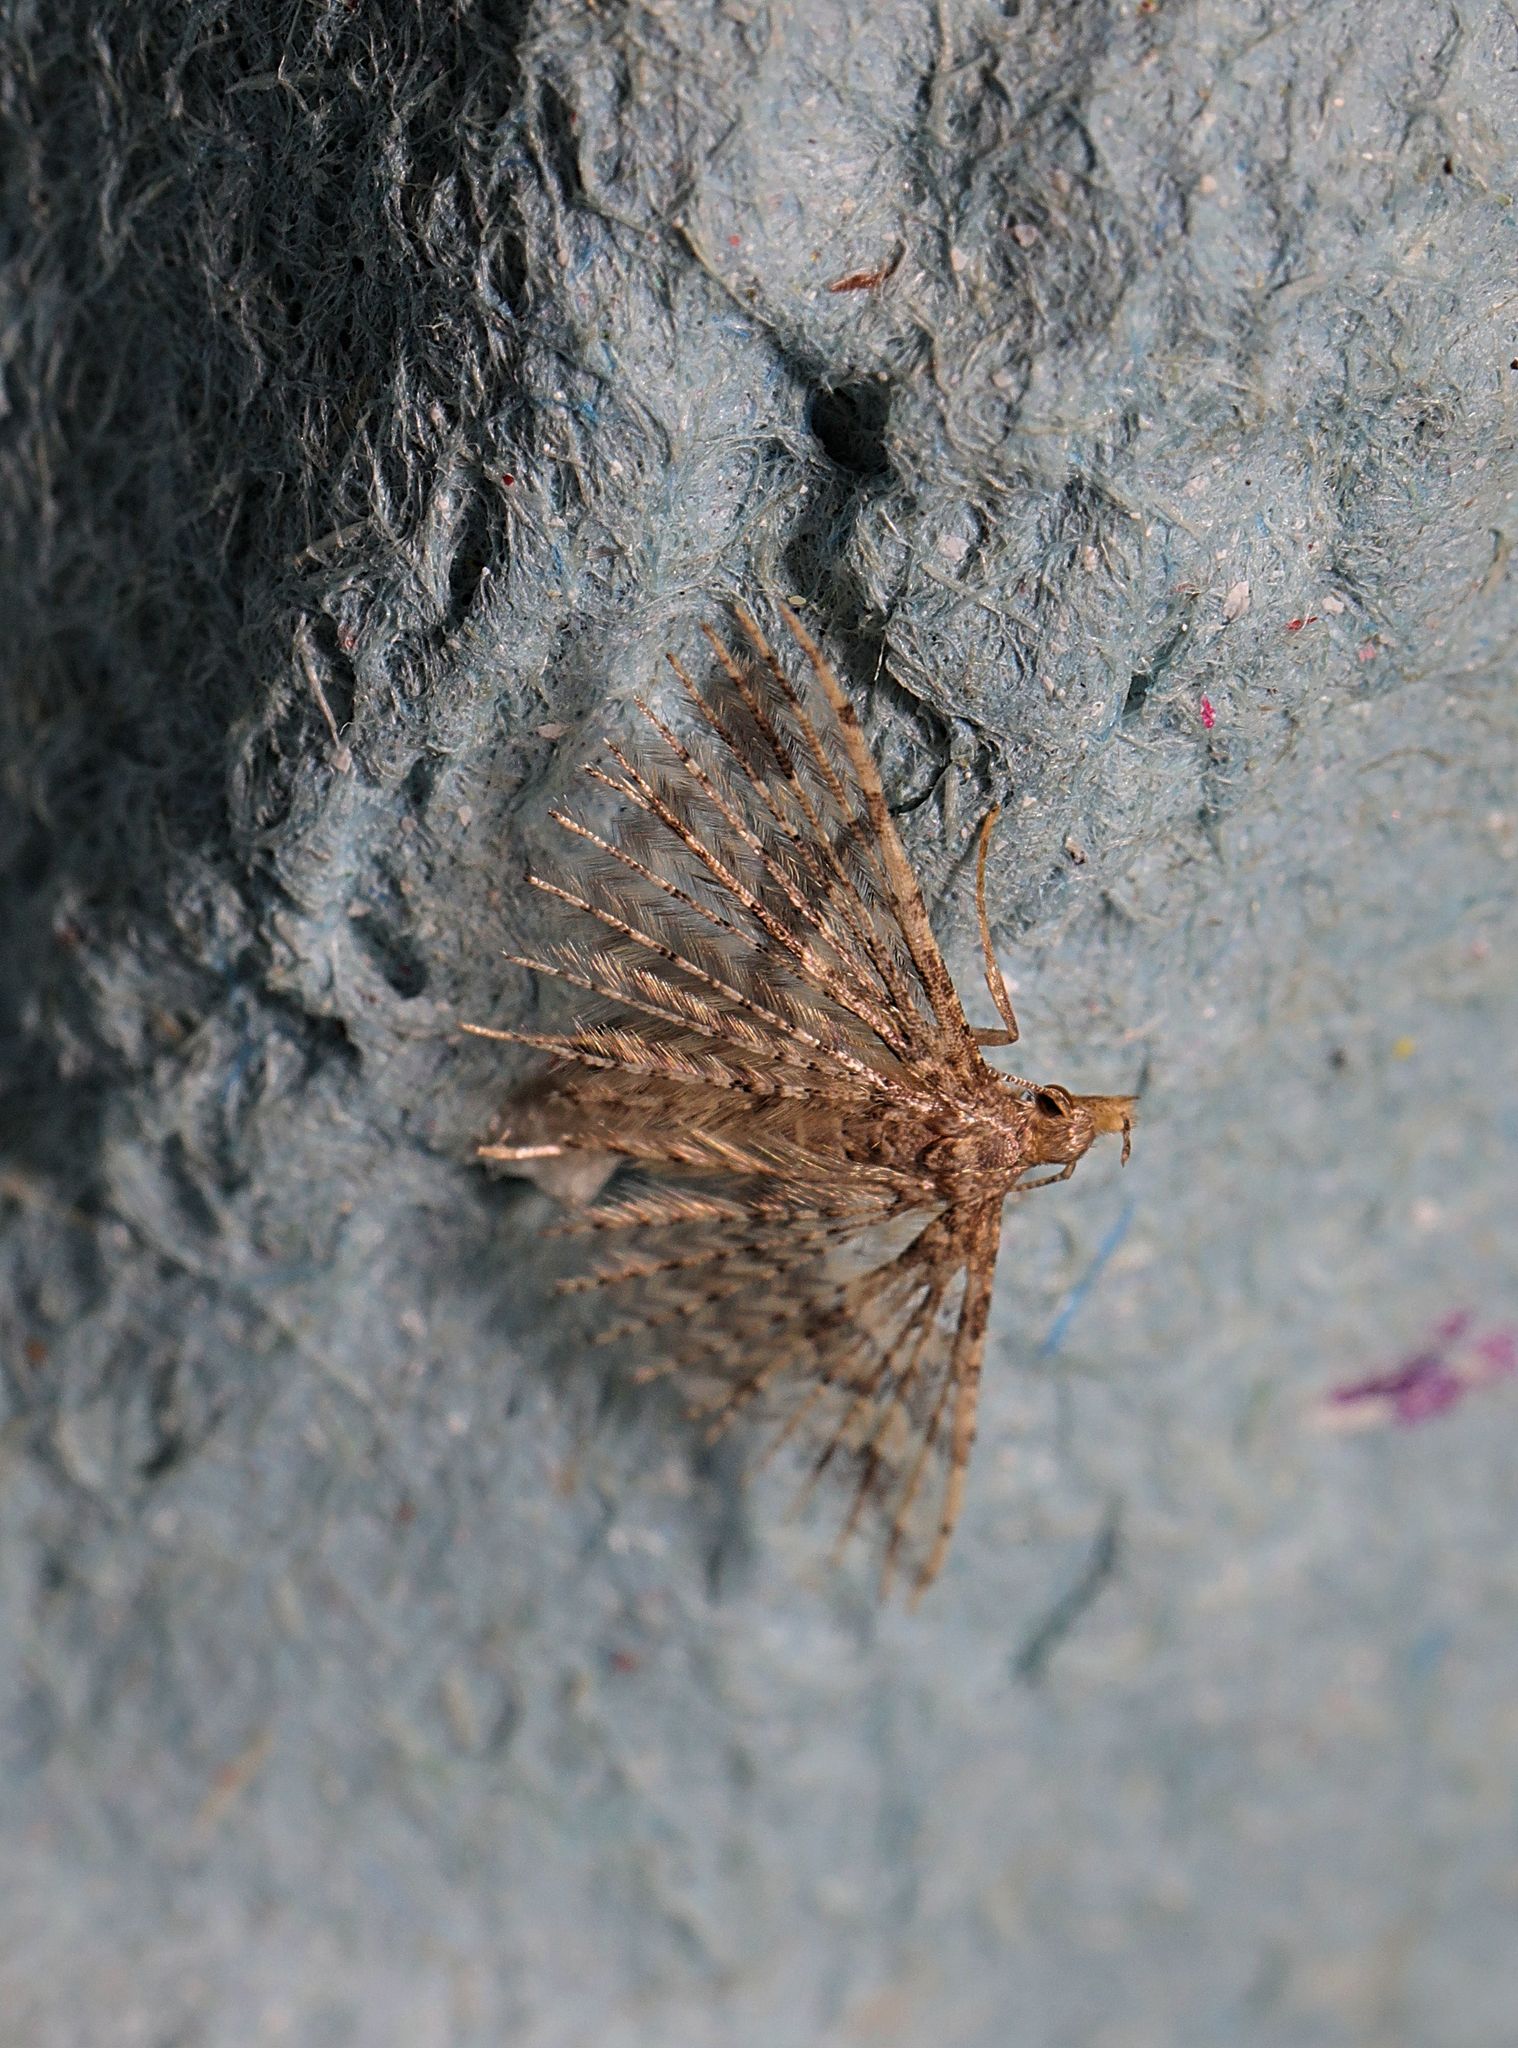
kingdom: Animalia
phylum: Arthropoda
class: Insecta
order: Lepidoptera
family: Alucitidae
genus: Alucita
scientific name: Alucita hexadactyla
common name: Twenty-plume moth
